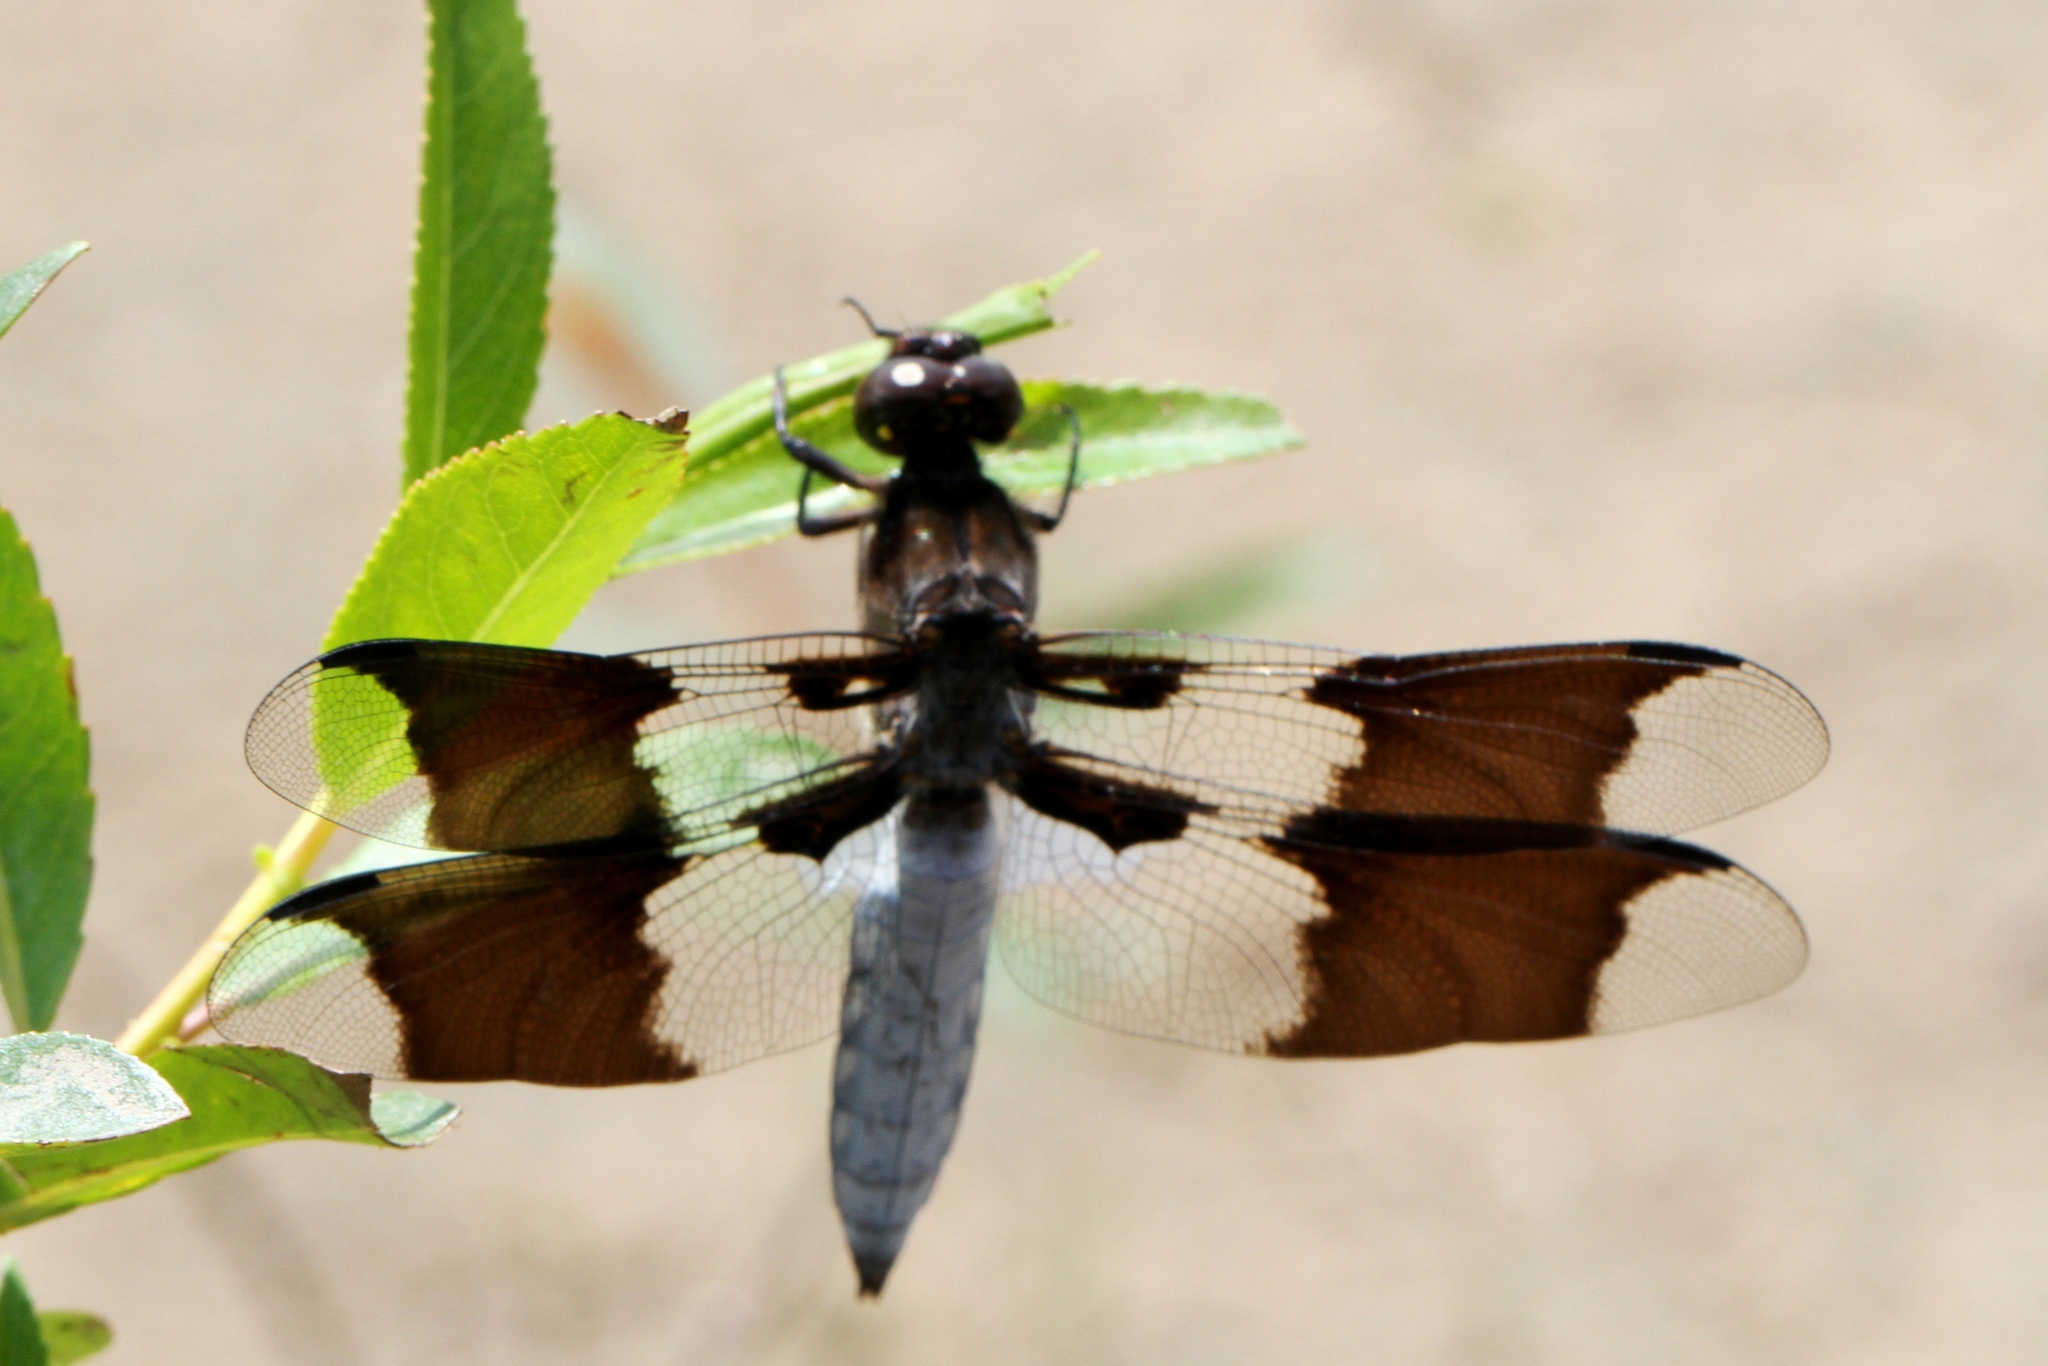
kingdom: Animalia
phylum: Arthropoda
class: Insecta
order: Odonata
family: Libellulidae
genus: Plathemis
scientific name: Plathemis lydia
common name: Common whitetail
